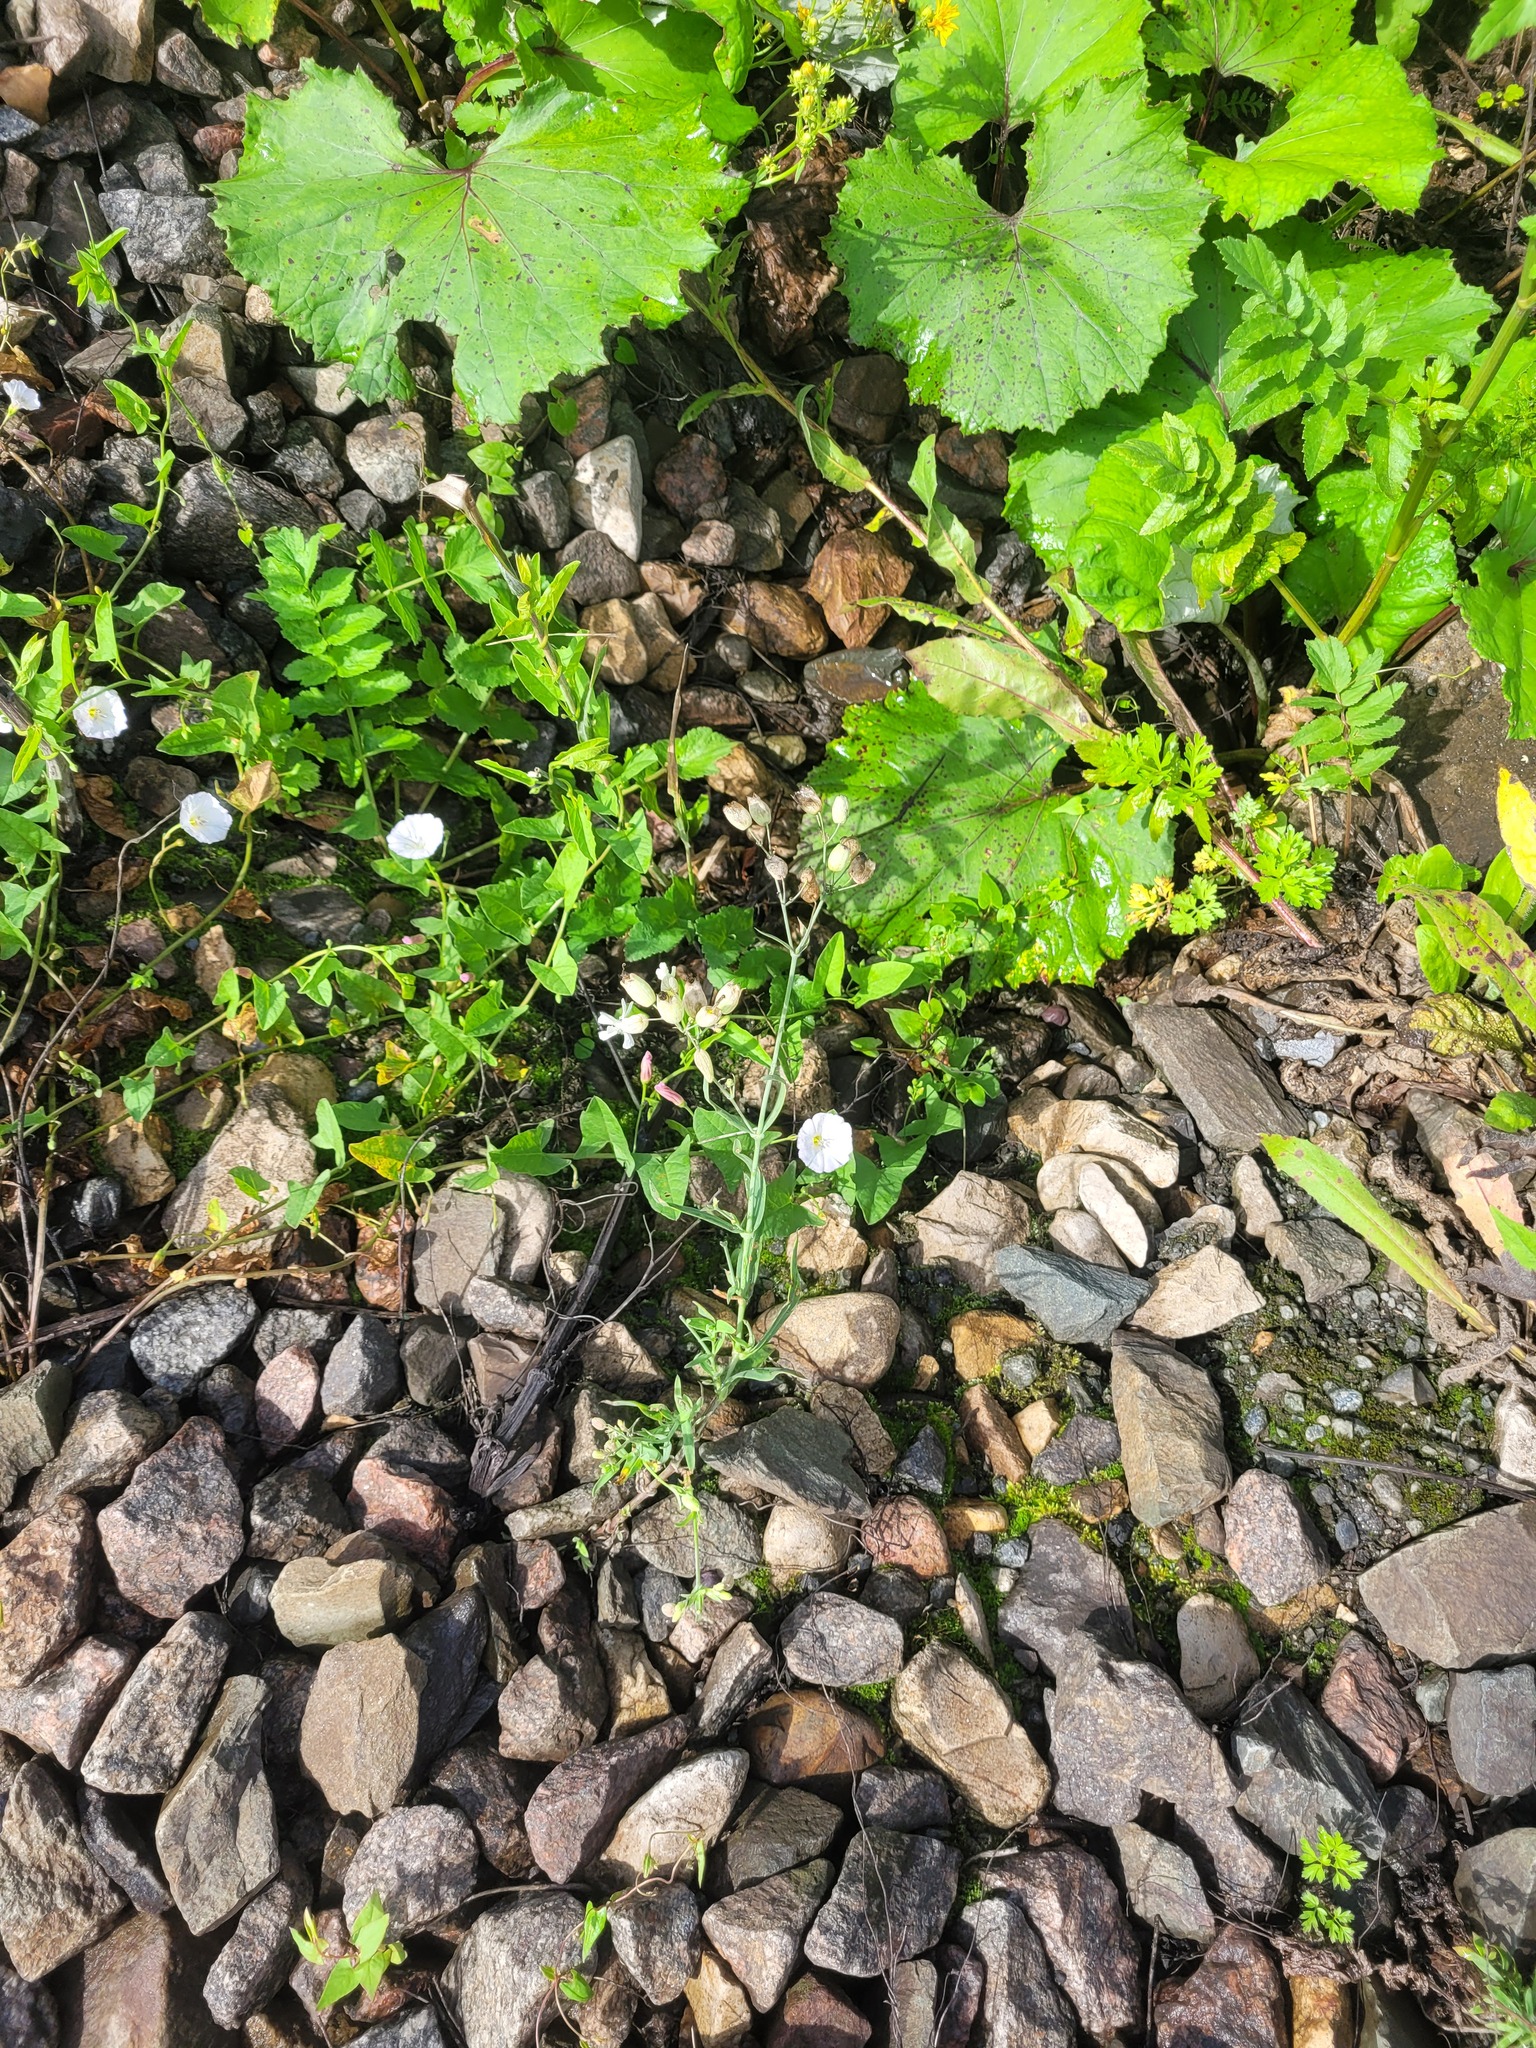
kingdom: Plantae
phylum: Tracheophyta
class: Magnoliopsida
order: Caryophyllales
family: Caryophyllaceae
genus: Silene
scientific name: Silene vulgaris
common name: Bladder campion
